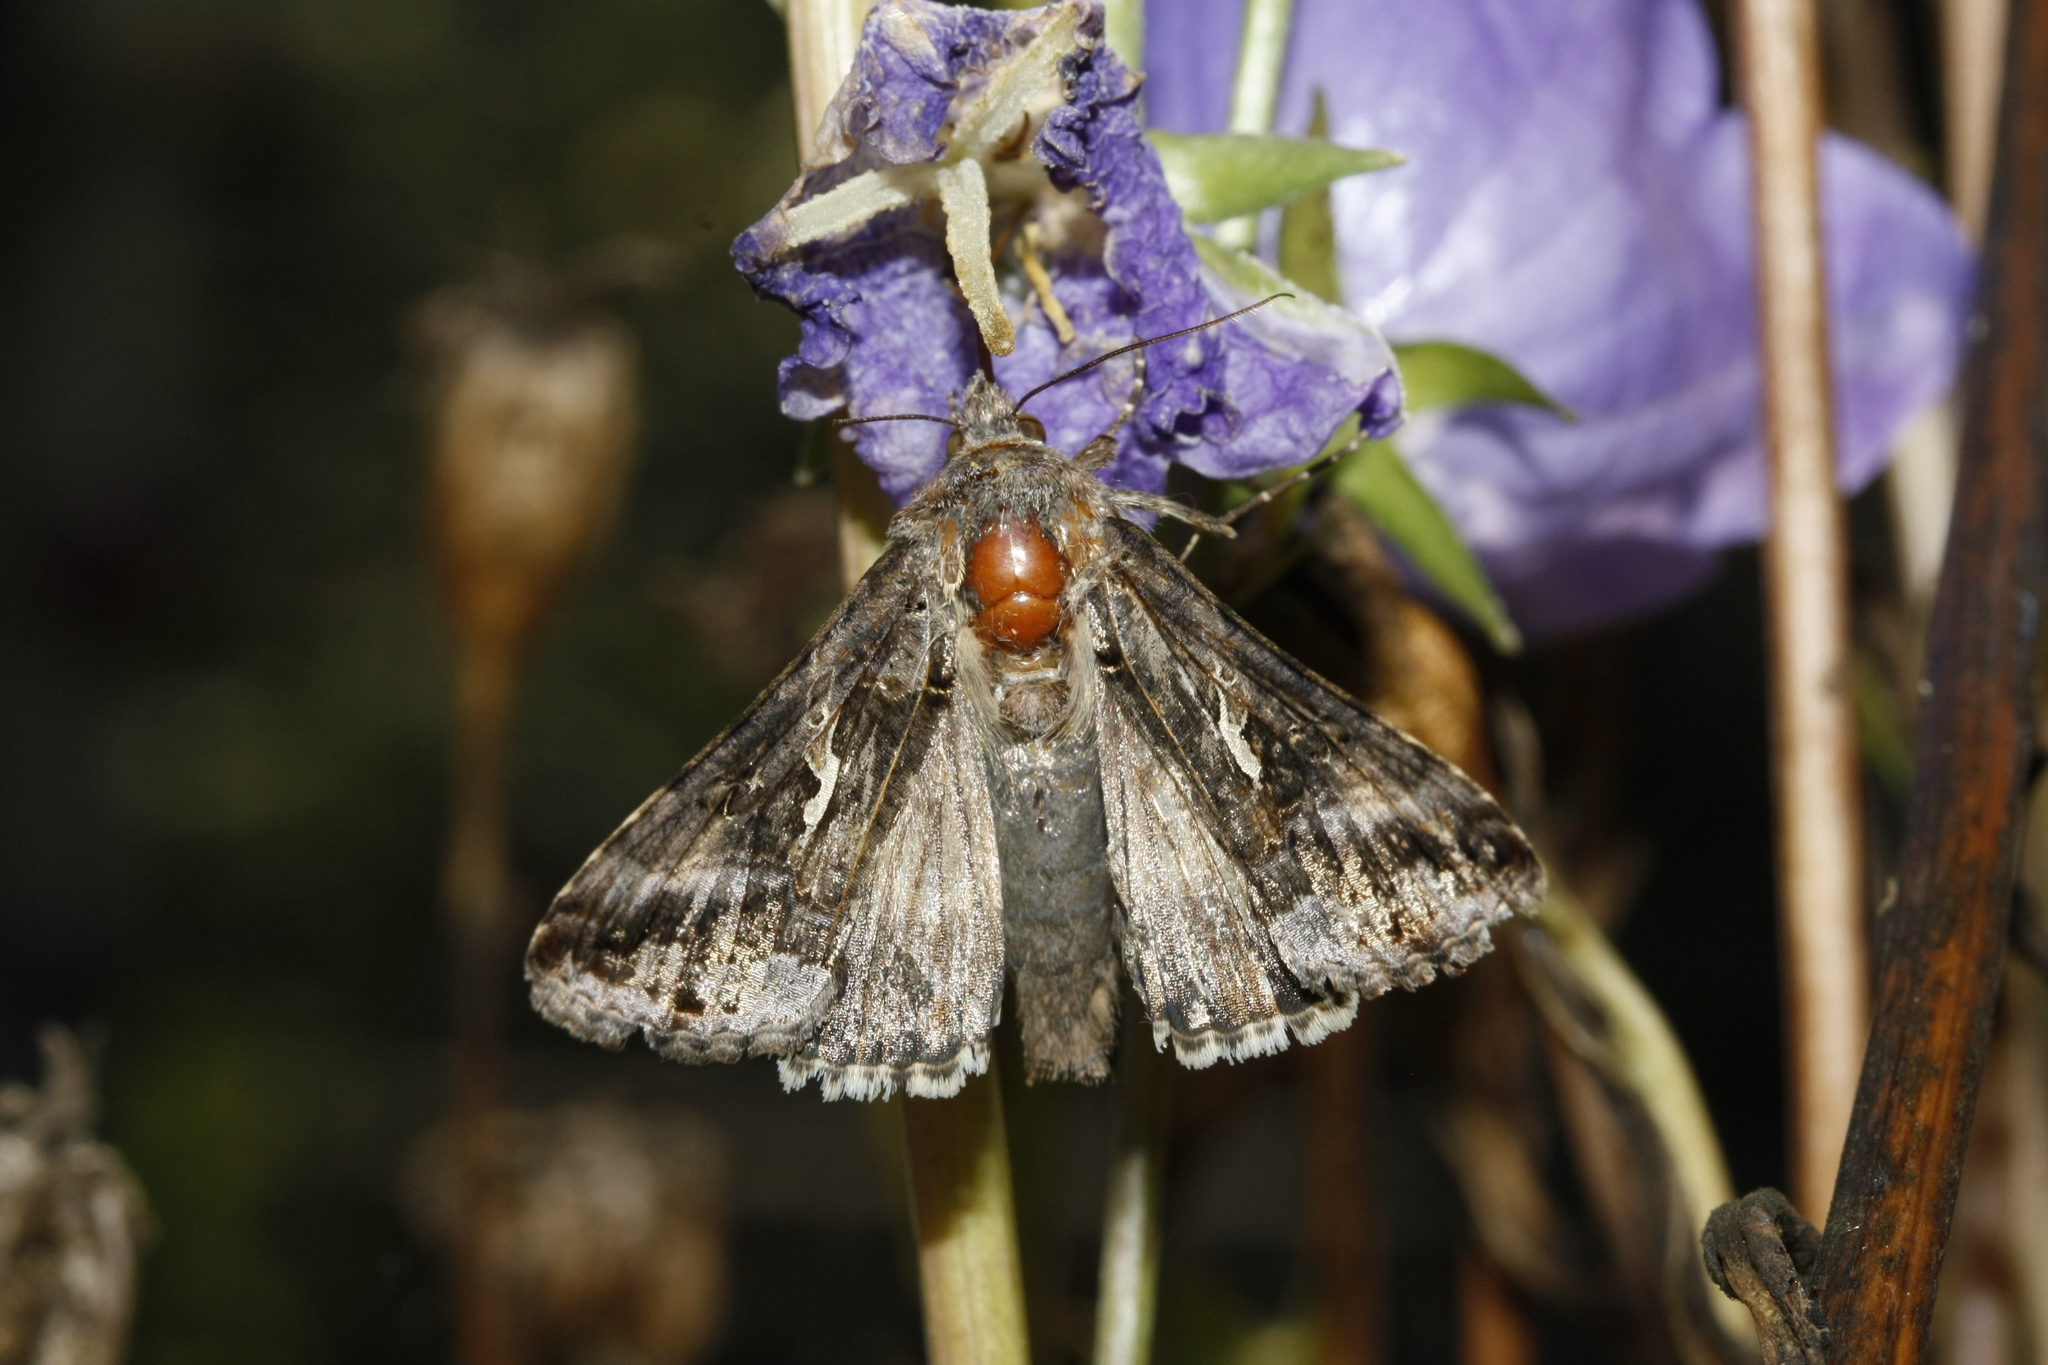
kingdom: Animalia
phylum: Arthropoda
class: Insecta
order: Lepidoptera
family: Noctuidae
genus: Autographa
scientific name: Autographa gamma
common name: Silver y
